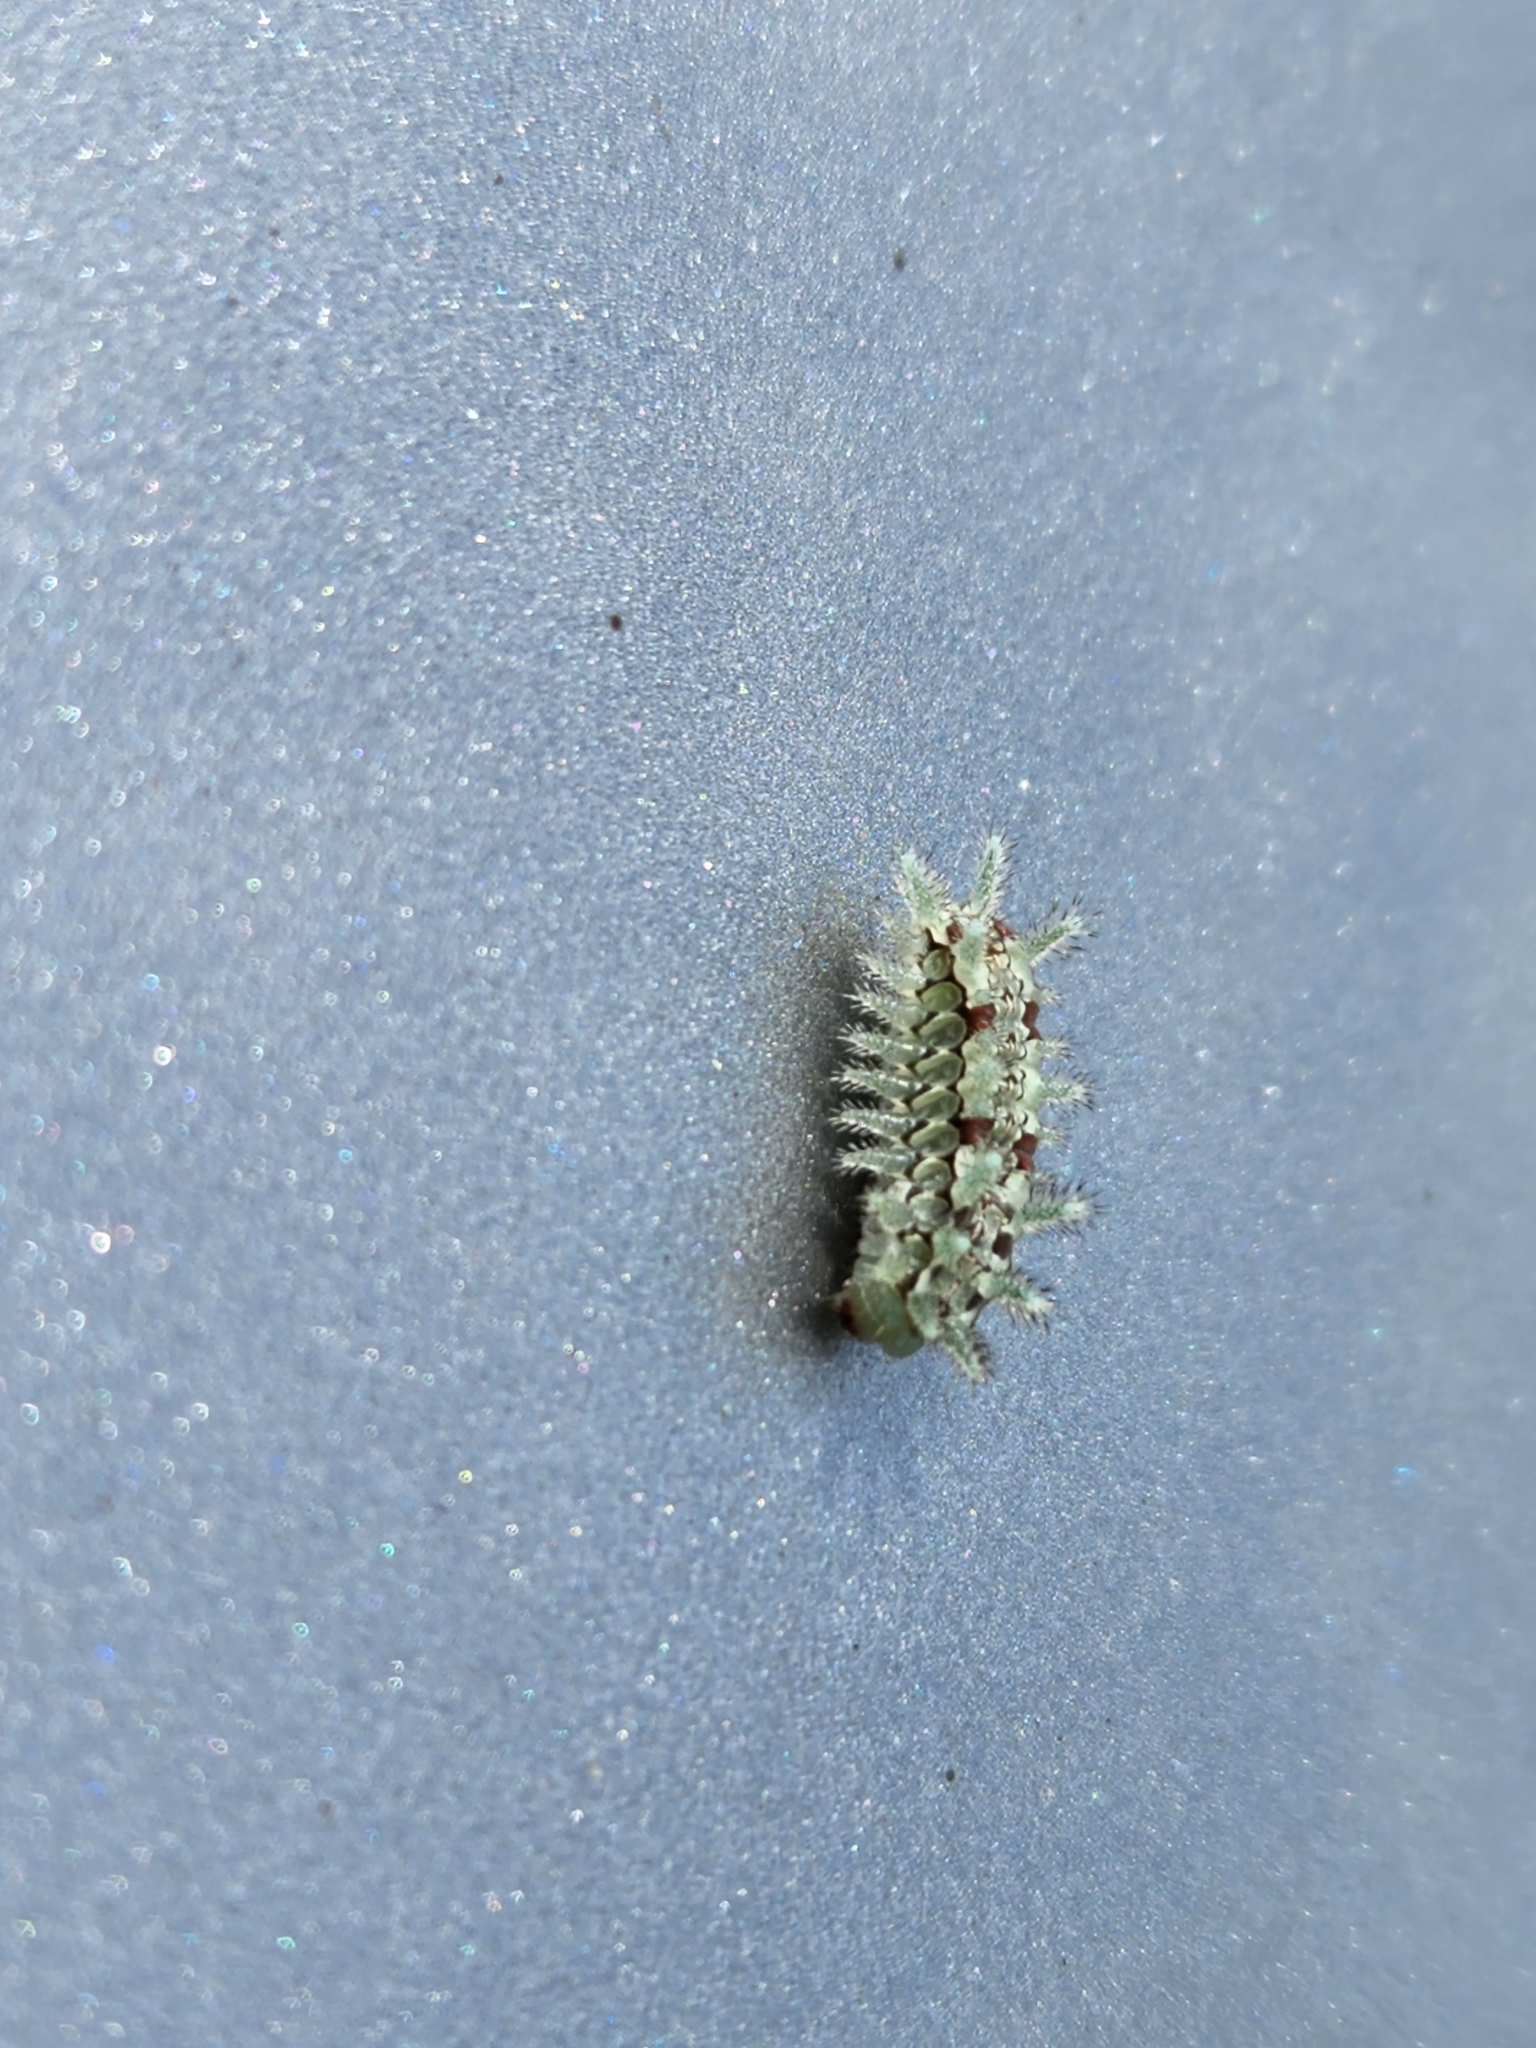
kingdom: Animalia
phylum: Arthropoda
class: Insecta
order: Lepidoptera
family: Limacodidae
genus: Euclea
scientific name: Euclea delphinii
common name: Spiny oak-slug moth
